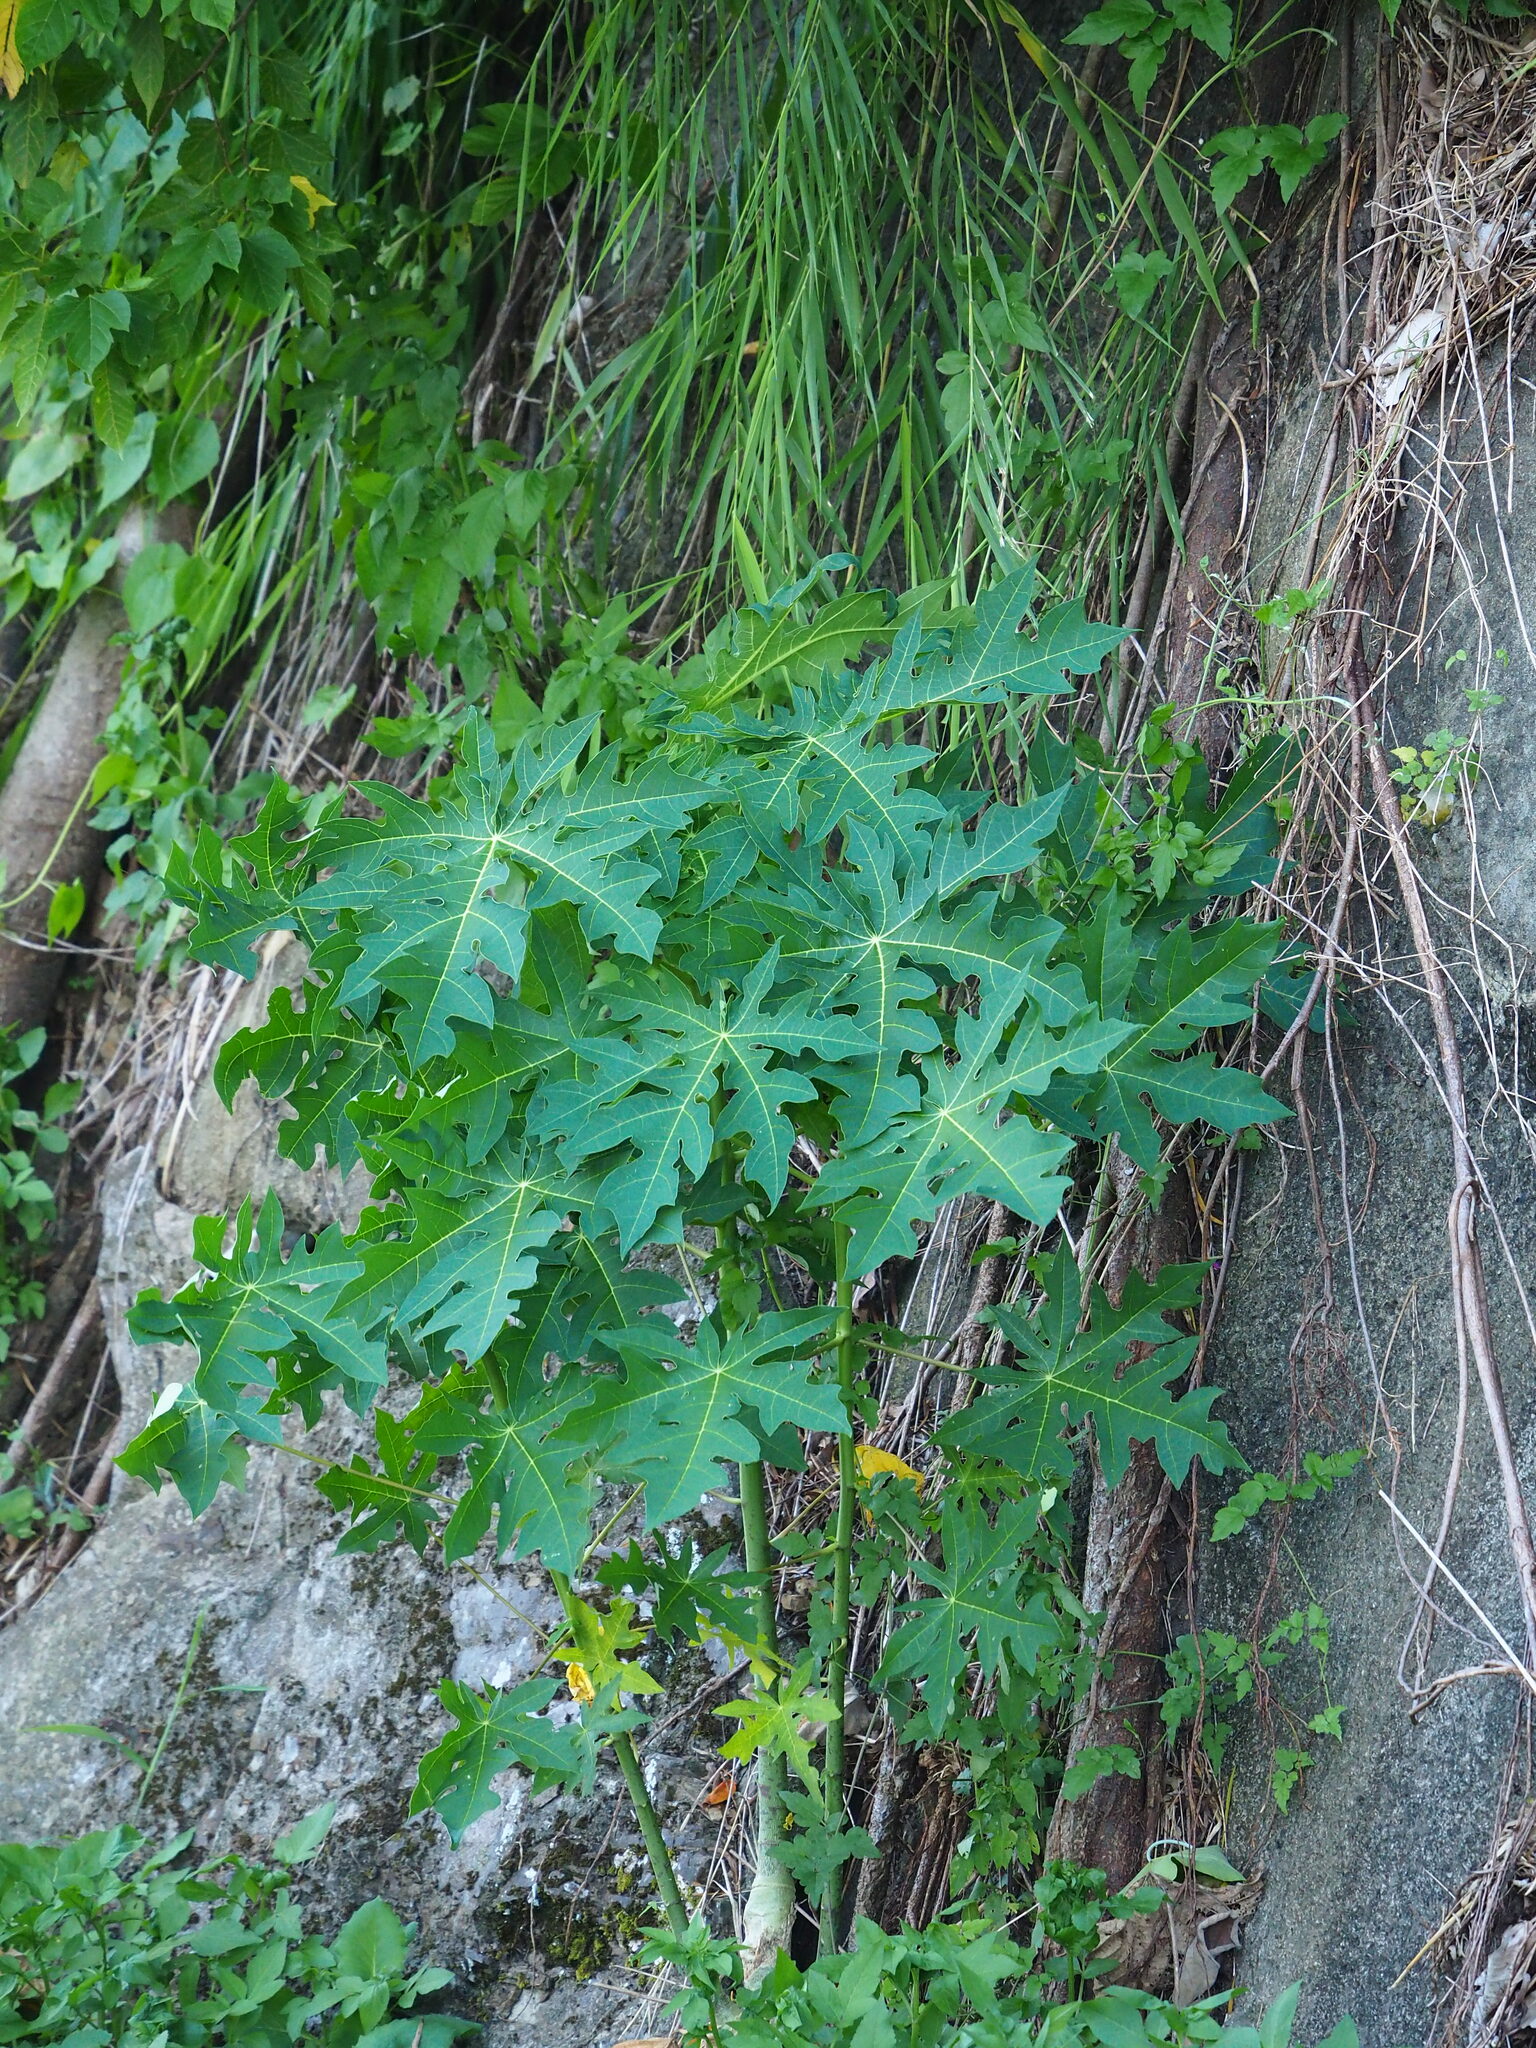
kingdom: Plantae
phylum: Tracheophyta
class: Magnoliopsida
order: Brassicales
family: Caricaceae
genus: Carica
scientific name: Carica papaya
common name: Papaya
